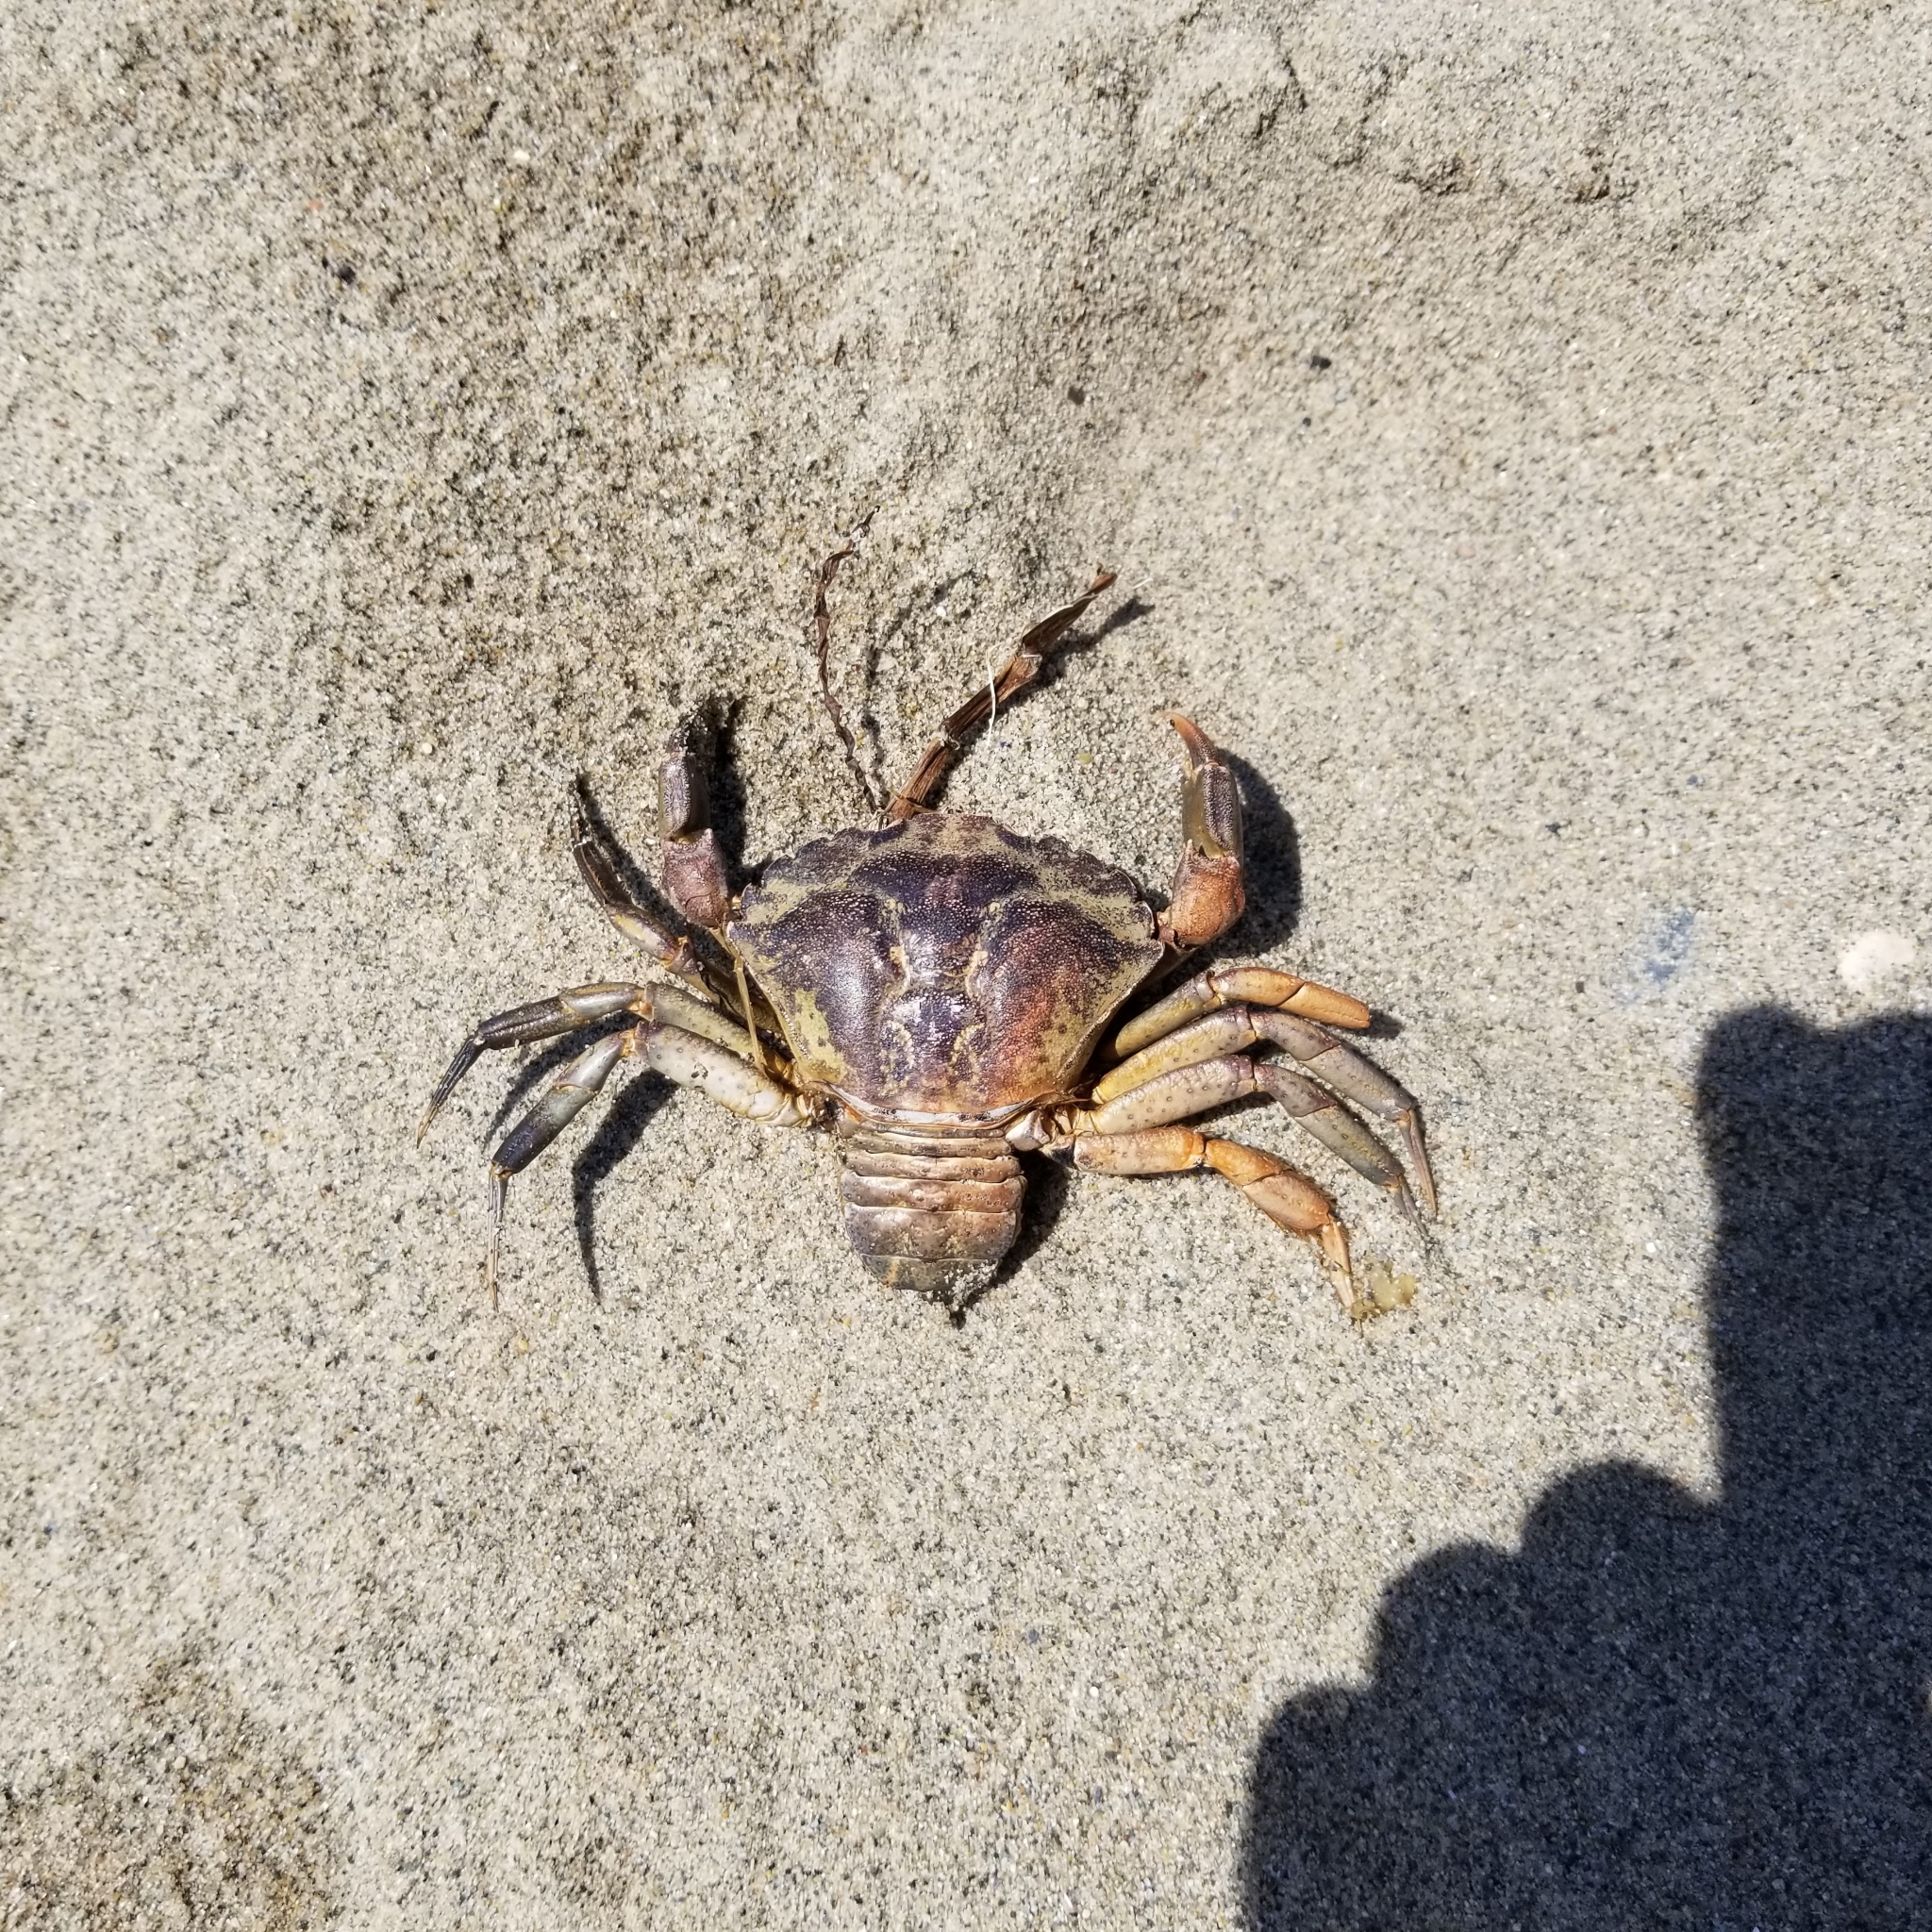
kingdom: Animalia
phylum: Arthropoda
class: Malacostraca
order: Decapoda
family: Carcinidae
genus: Carcinus
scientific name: Carcinus maenas
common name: European green crab
